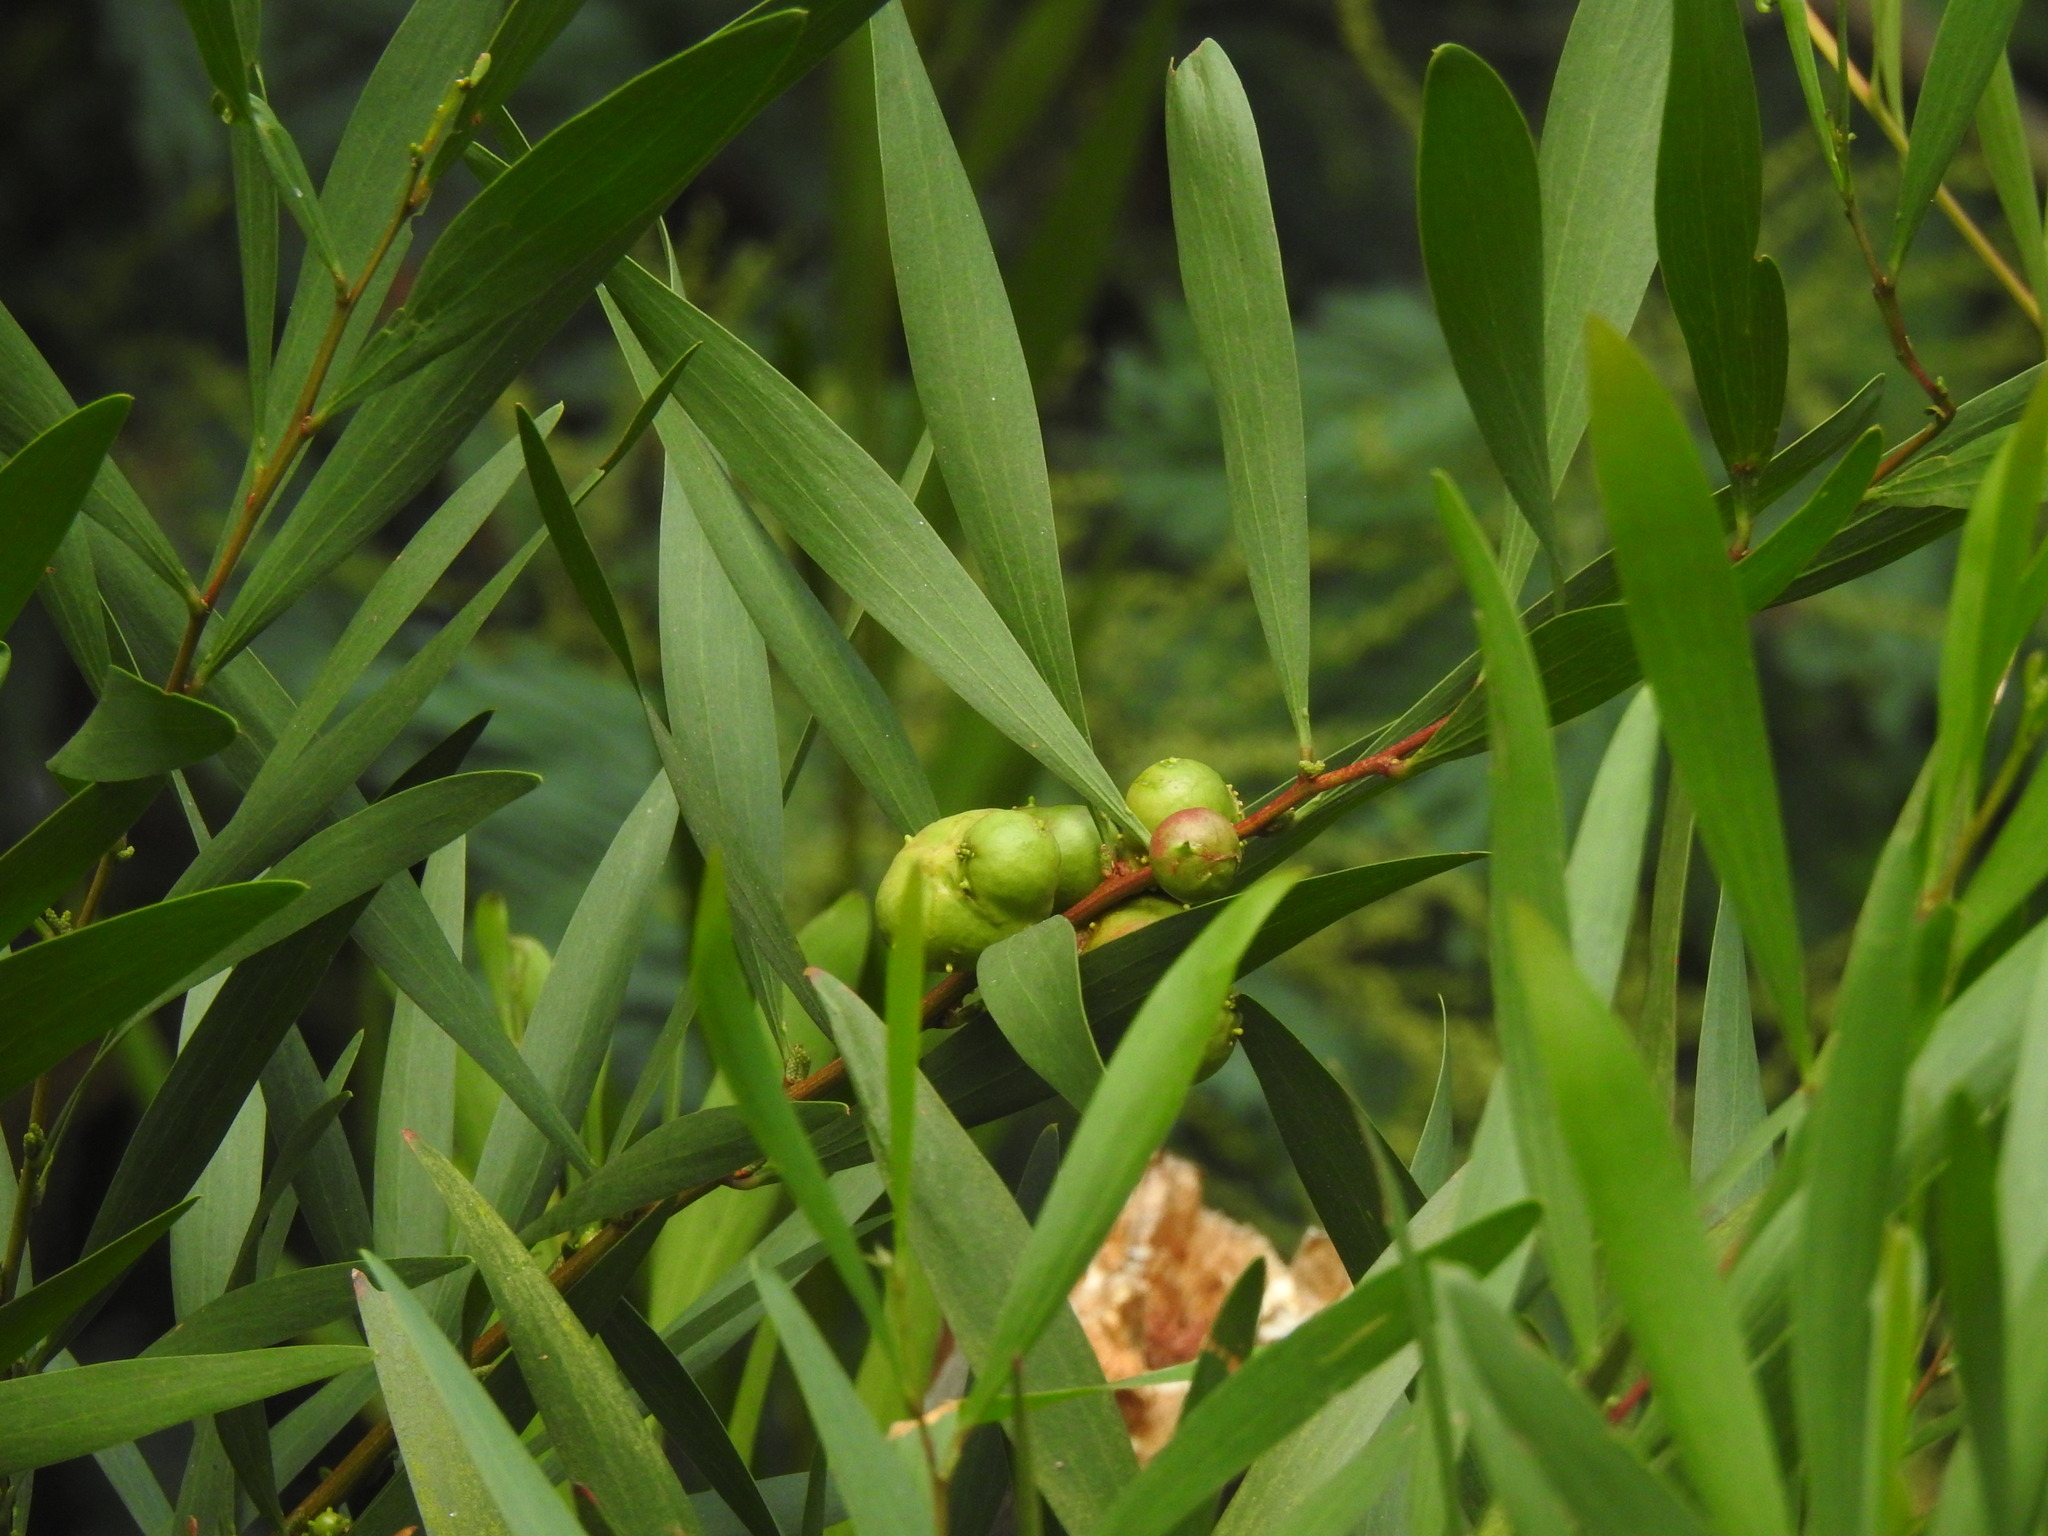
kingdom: Animalia
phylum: Arthropoda
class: Insecta
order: Hymenoptera
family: Pteromalidae
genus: Trichilogaster
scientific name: Trichilogaster acaciaelongifoliae
